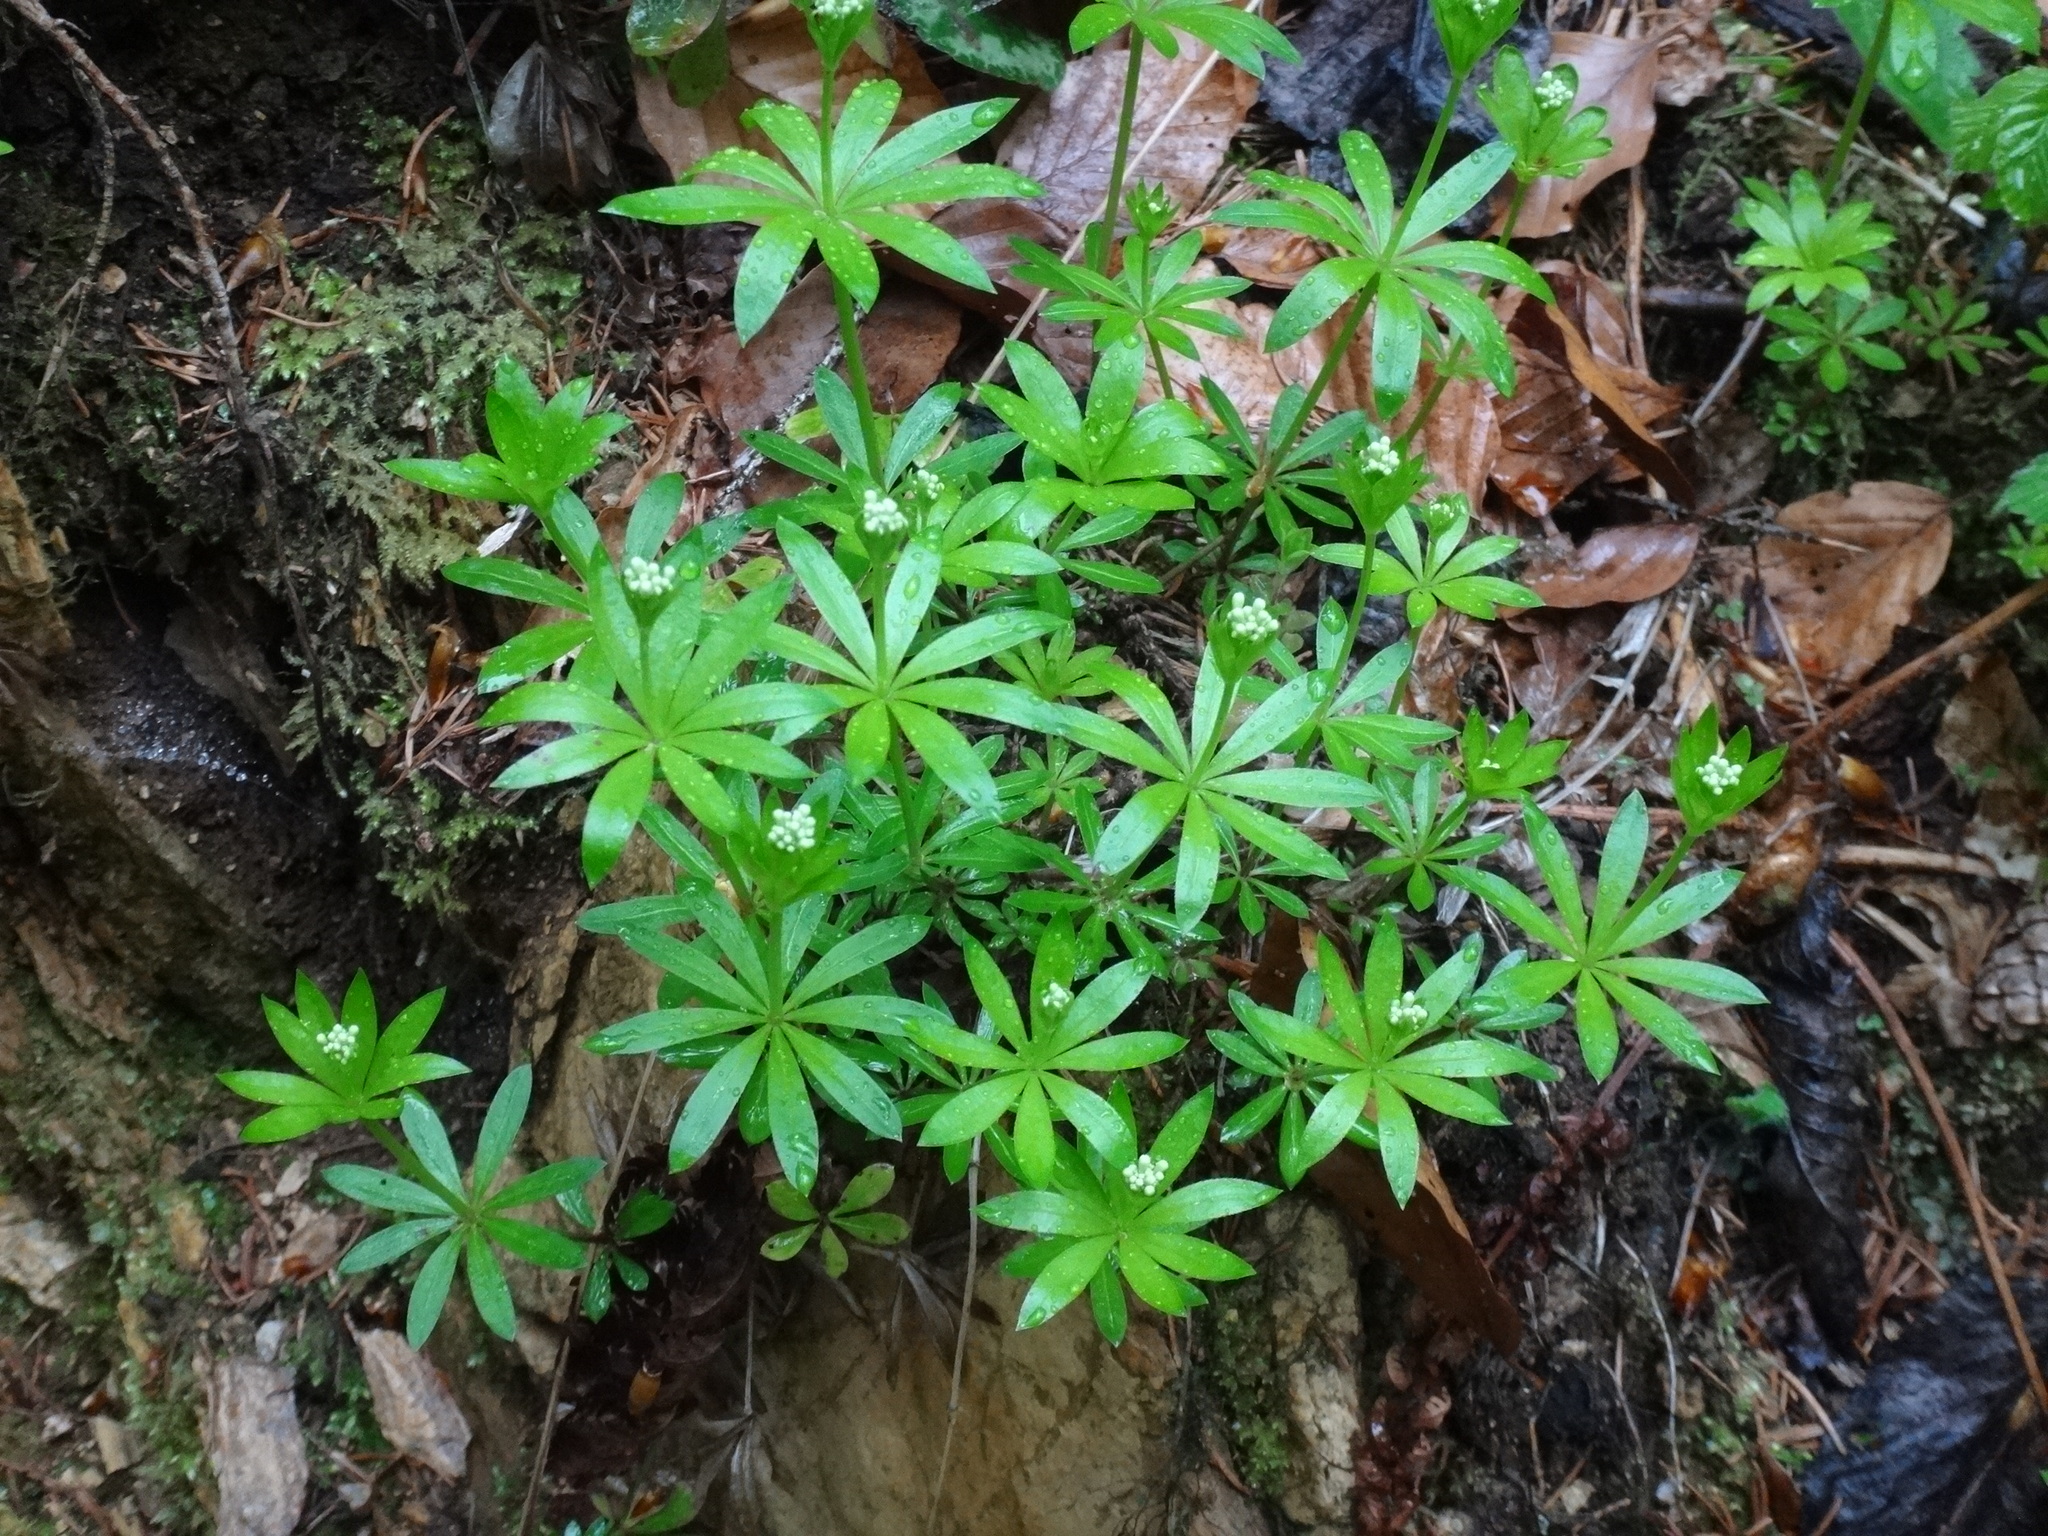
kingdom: Plantae
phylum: Tracheophyta
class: Magnoliopsida
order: Gentianales
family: Rubiaceae
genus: Galium
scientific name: Galium odoratum
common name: Sweet woodruff
